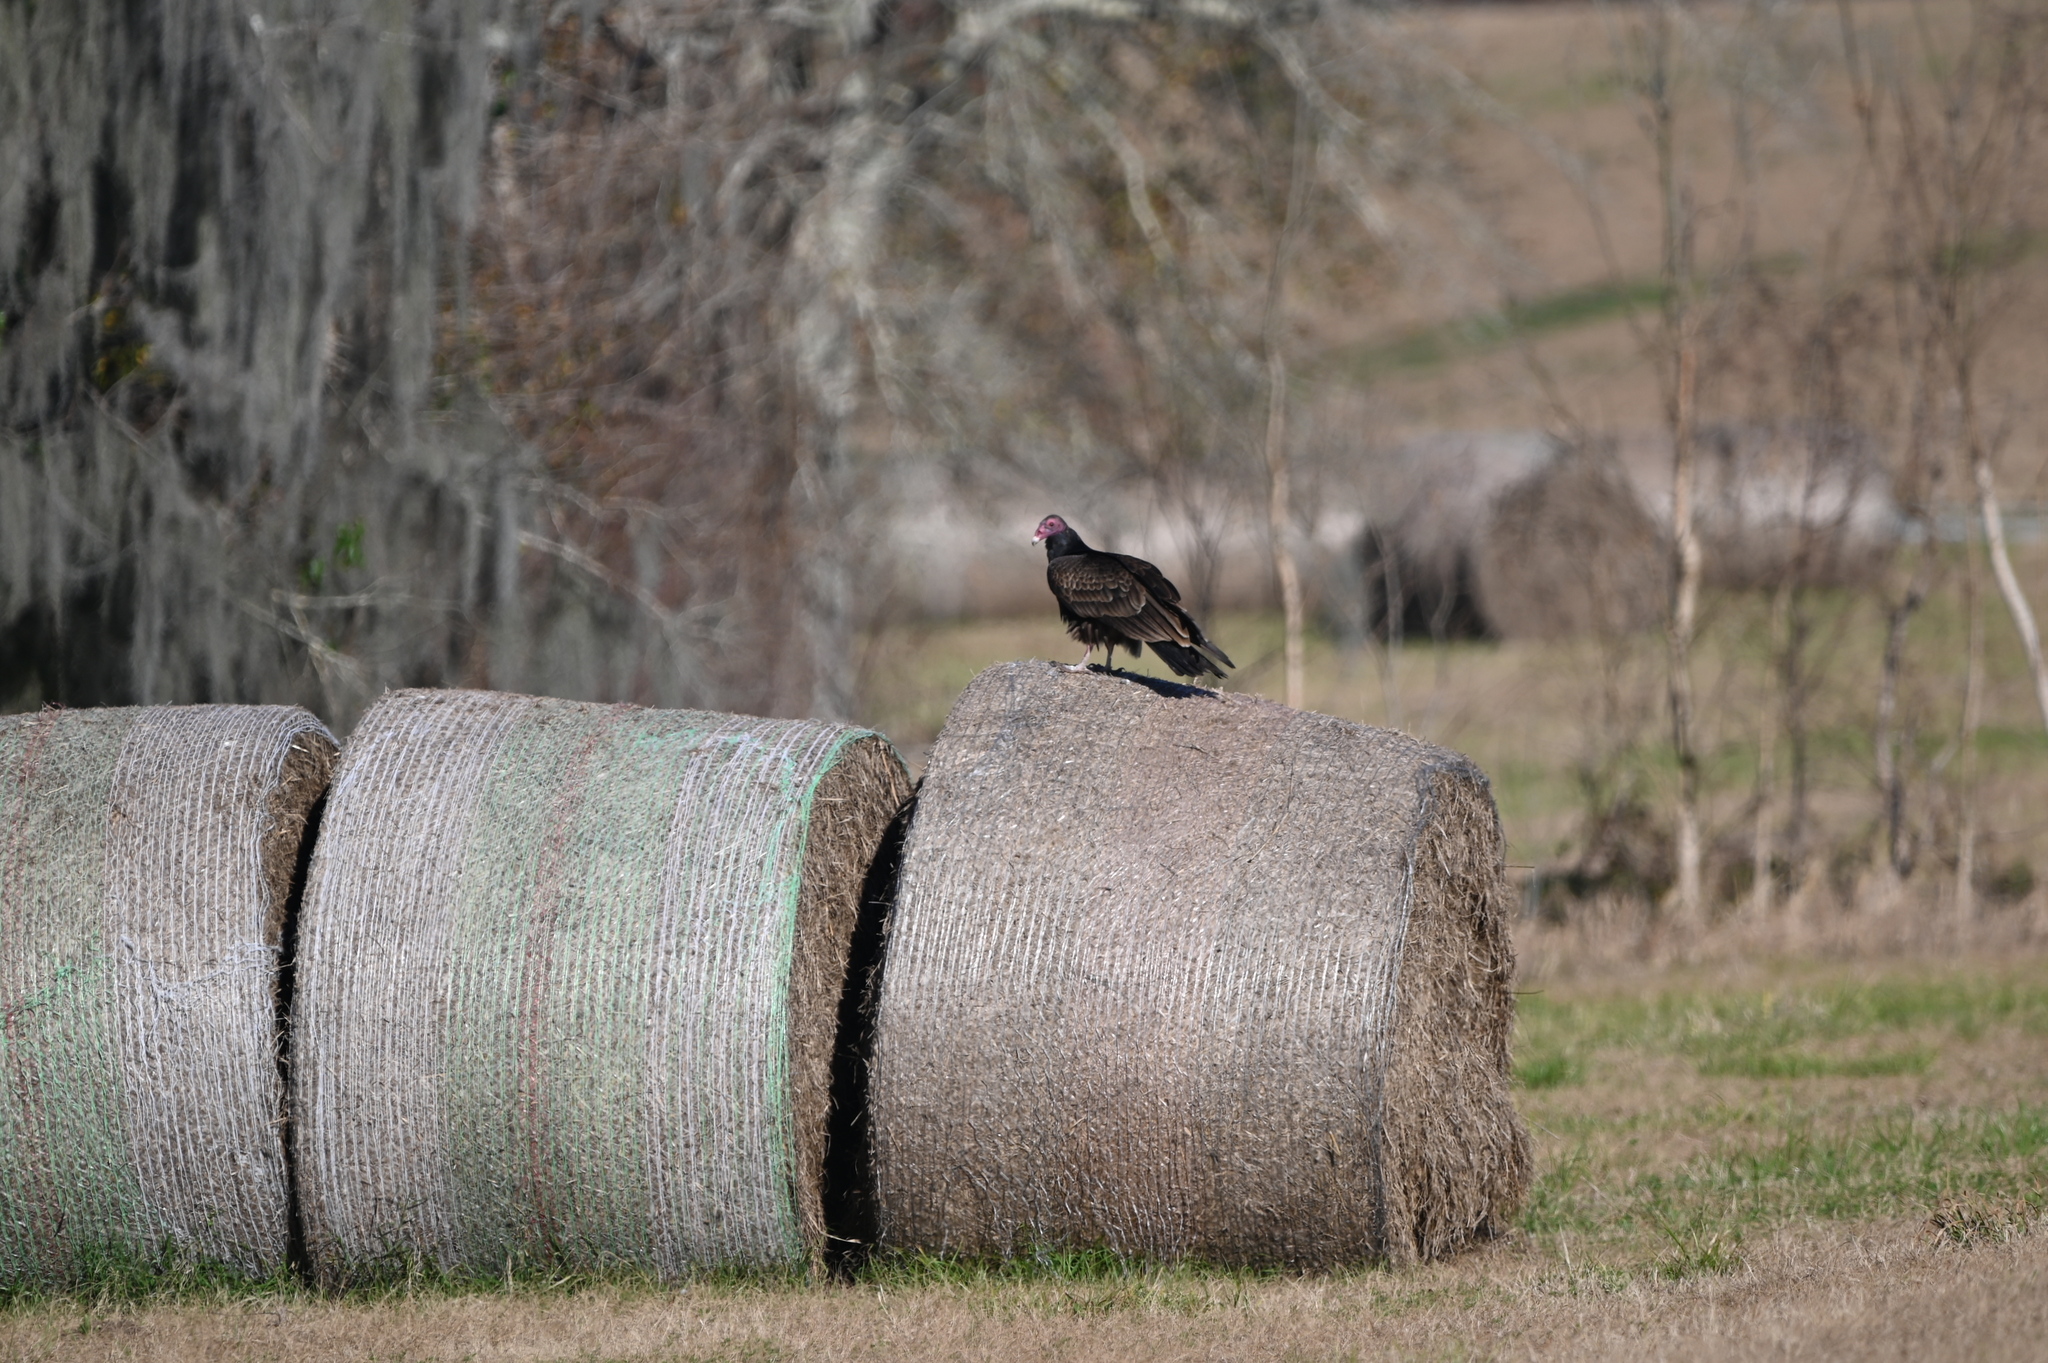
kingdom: Animalia
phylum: Chordata
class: Aves
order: Accipitriformes
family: Cathartidae
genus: Cathartes
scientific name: Cathartes aura
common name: Turkey vulture
